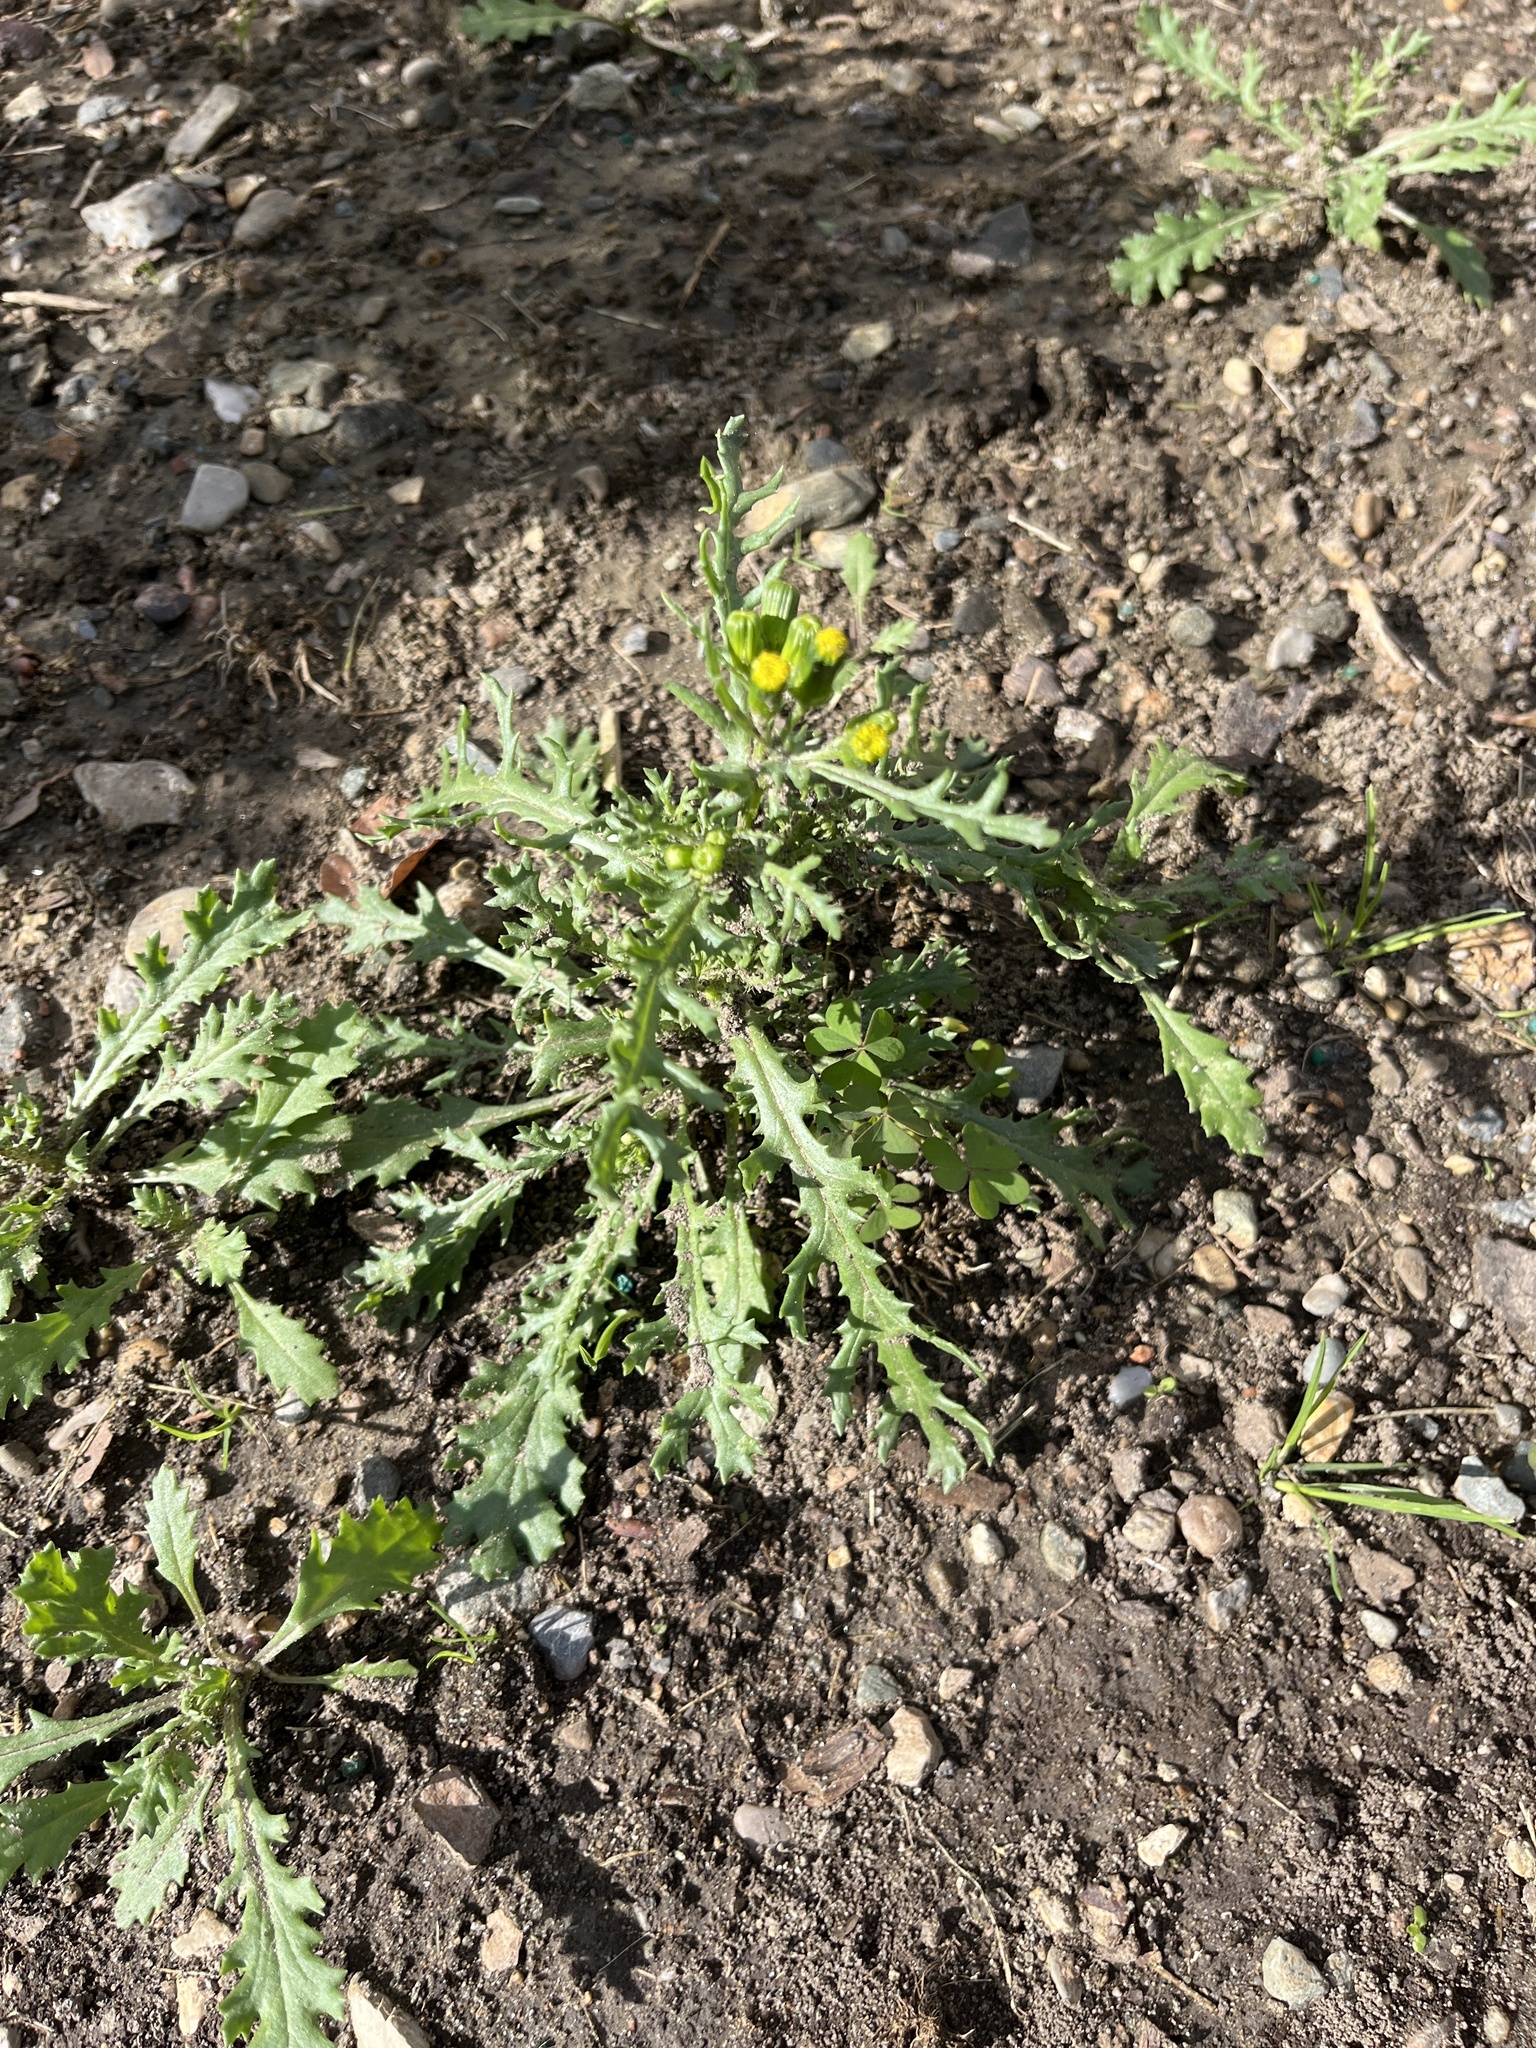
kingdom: Plantae
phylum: Tracheophyta
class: Magnoliopsida
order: Asterales
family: Asteraceae
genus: Senecio
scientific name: Senecio vulgaris
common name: Old-man-in-the-spring
